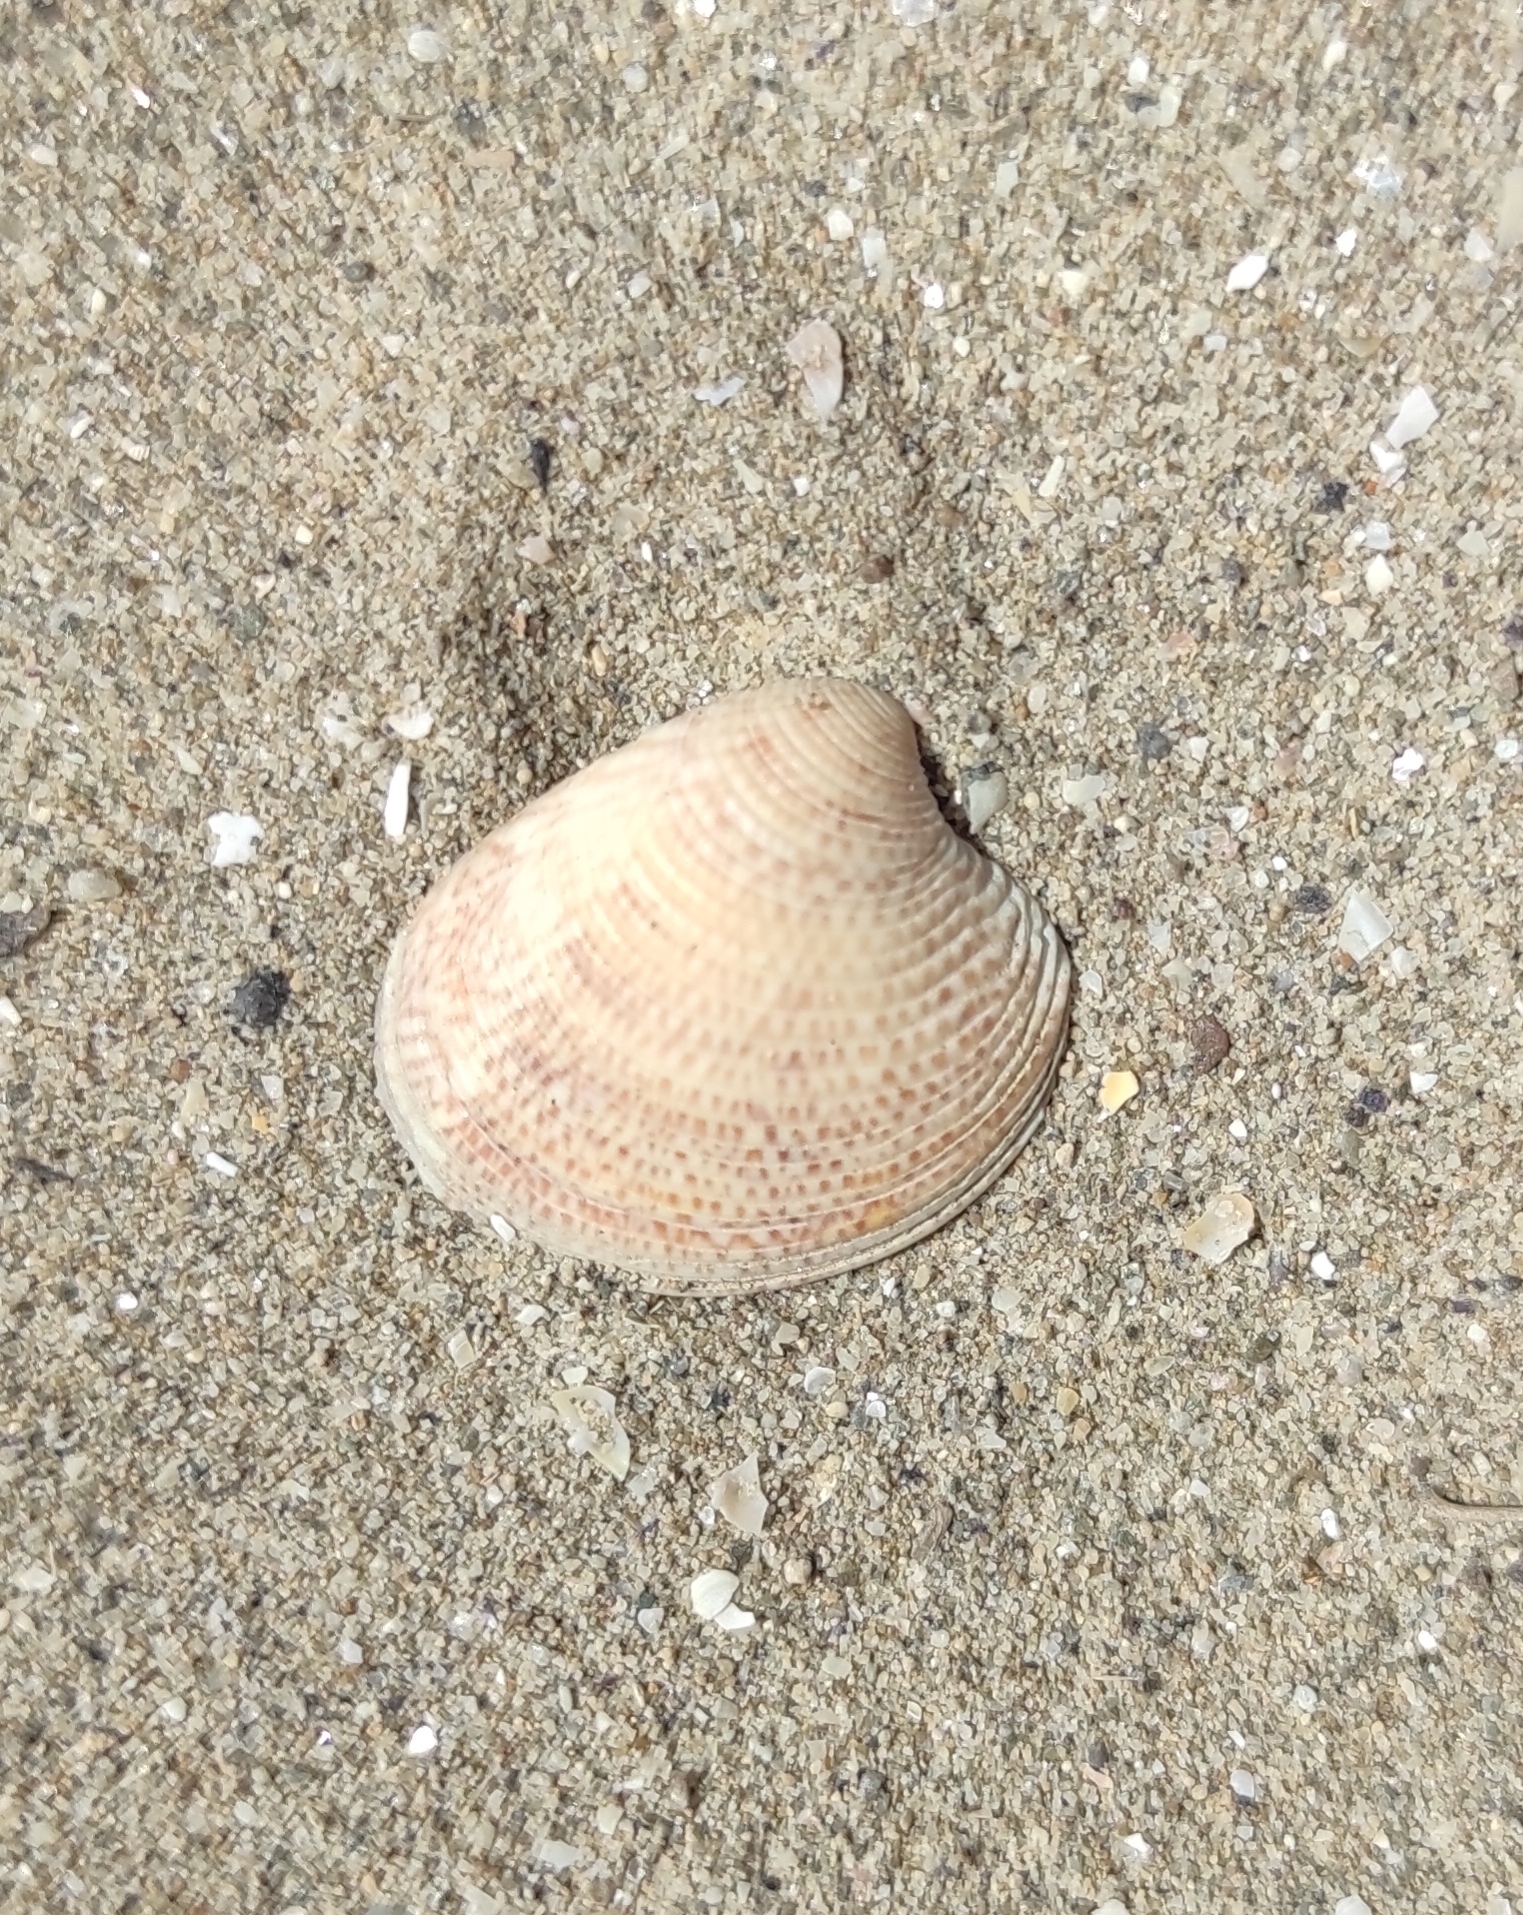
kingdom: Animalia
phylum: Mollusca
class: Bivalvia
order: Venerida
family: Veneridae
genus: Chamelea
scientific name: Chamelea gallina
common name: Chicken venus
